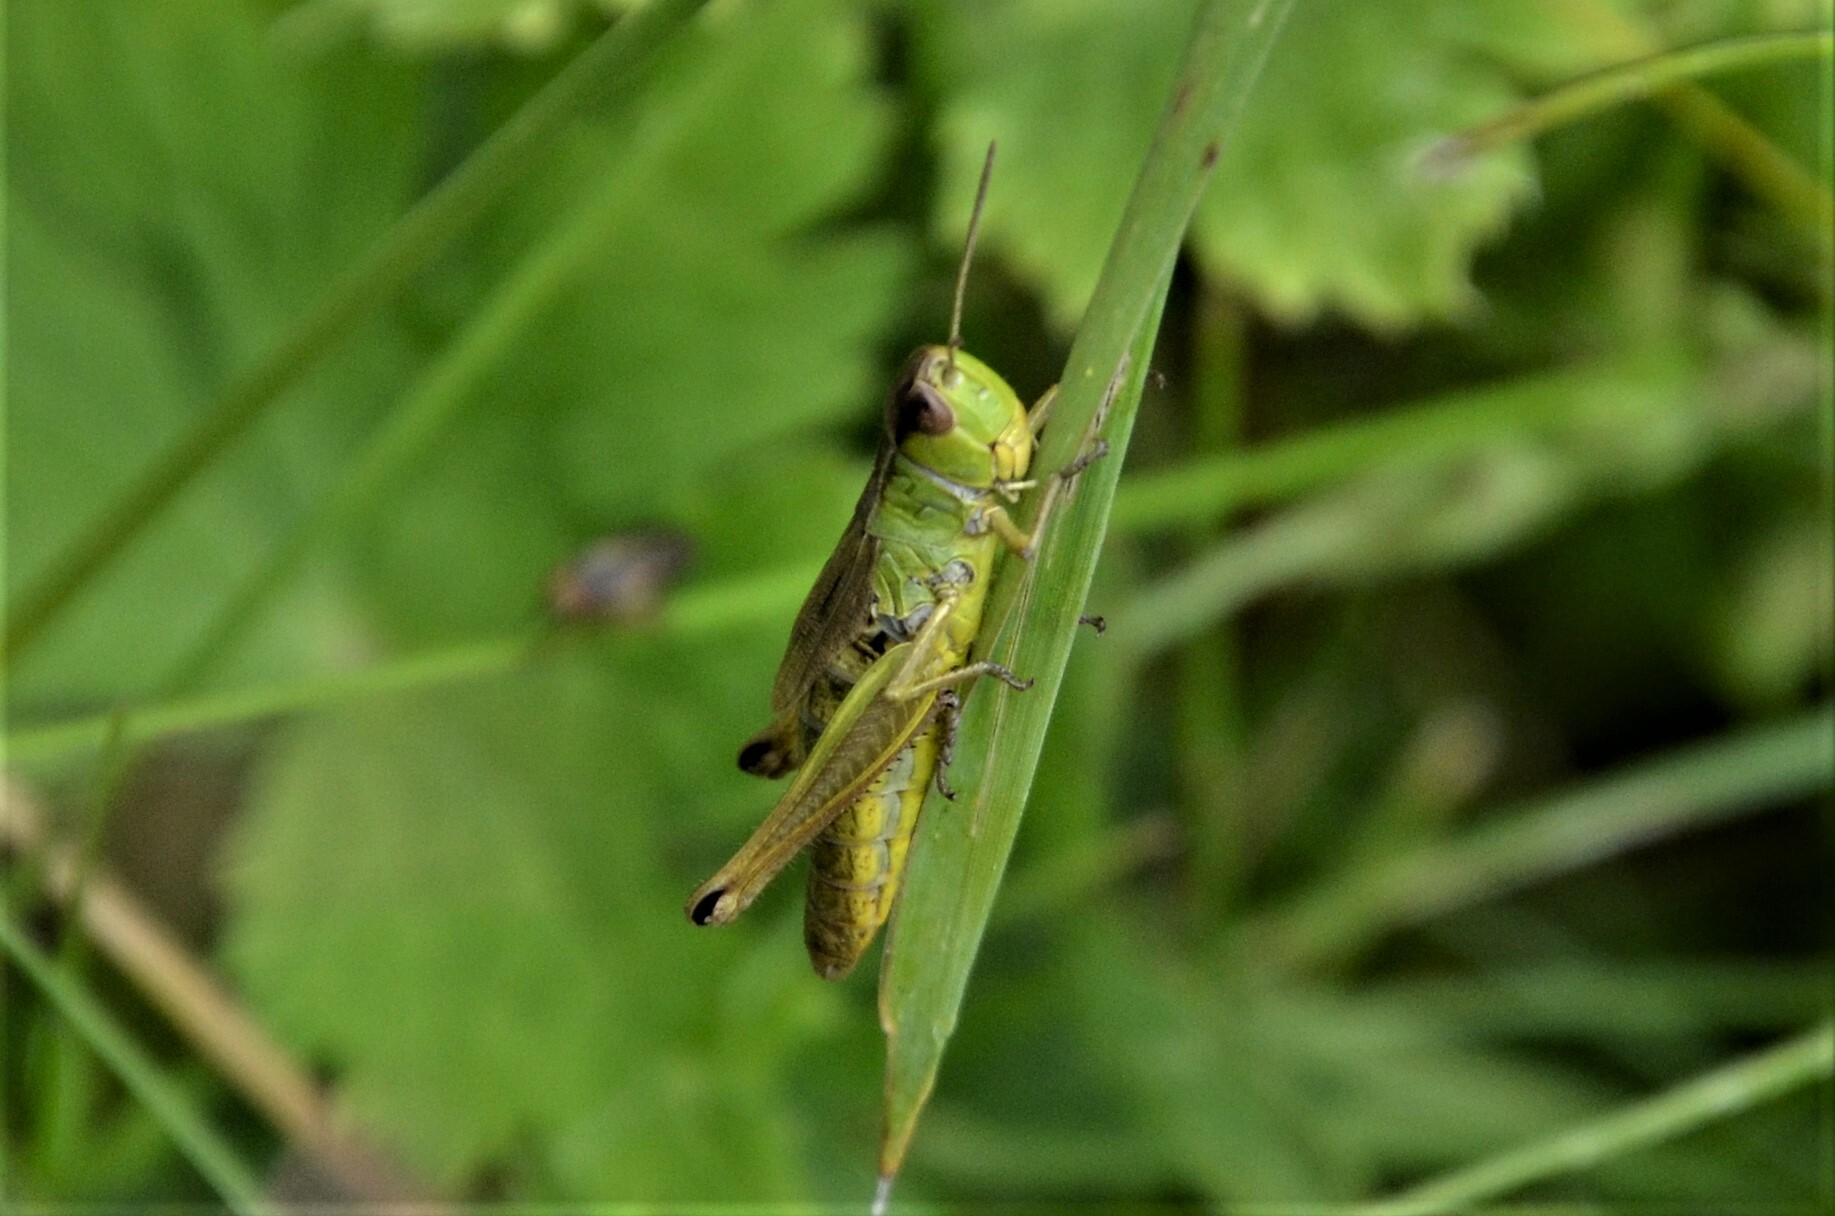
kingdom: Animalia
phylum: Arthropoda
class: Insecta
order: Orthoptera
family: Acrididae
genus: Pseudochorthippus
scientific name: Pseudochorthippus parallelus
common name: Meadow grasshopper
